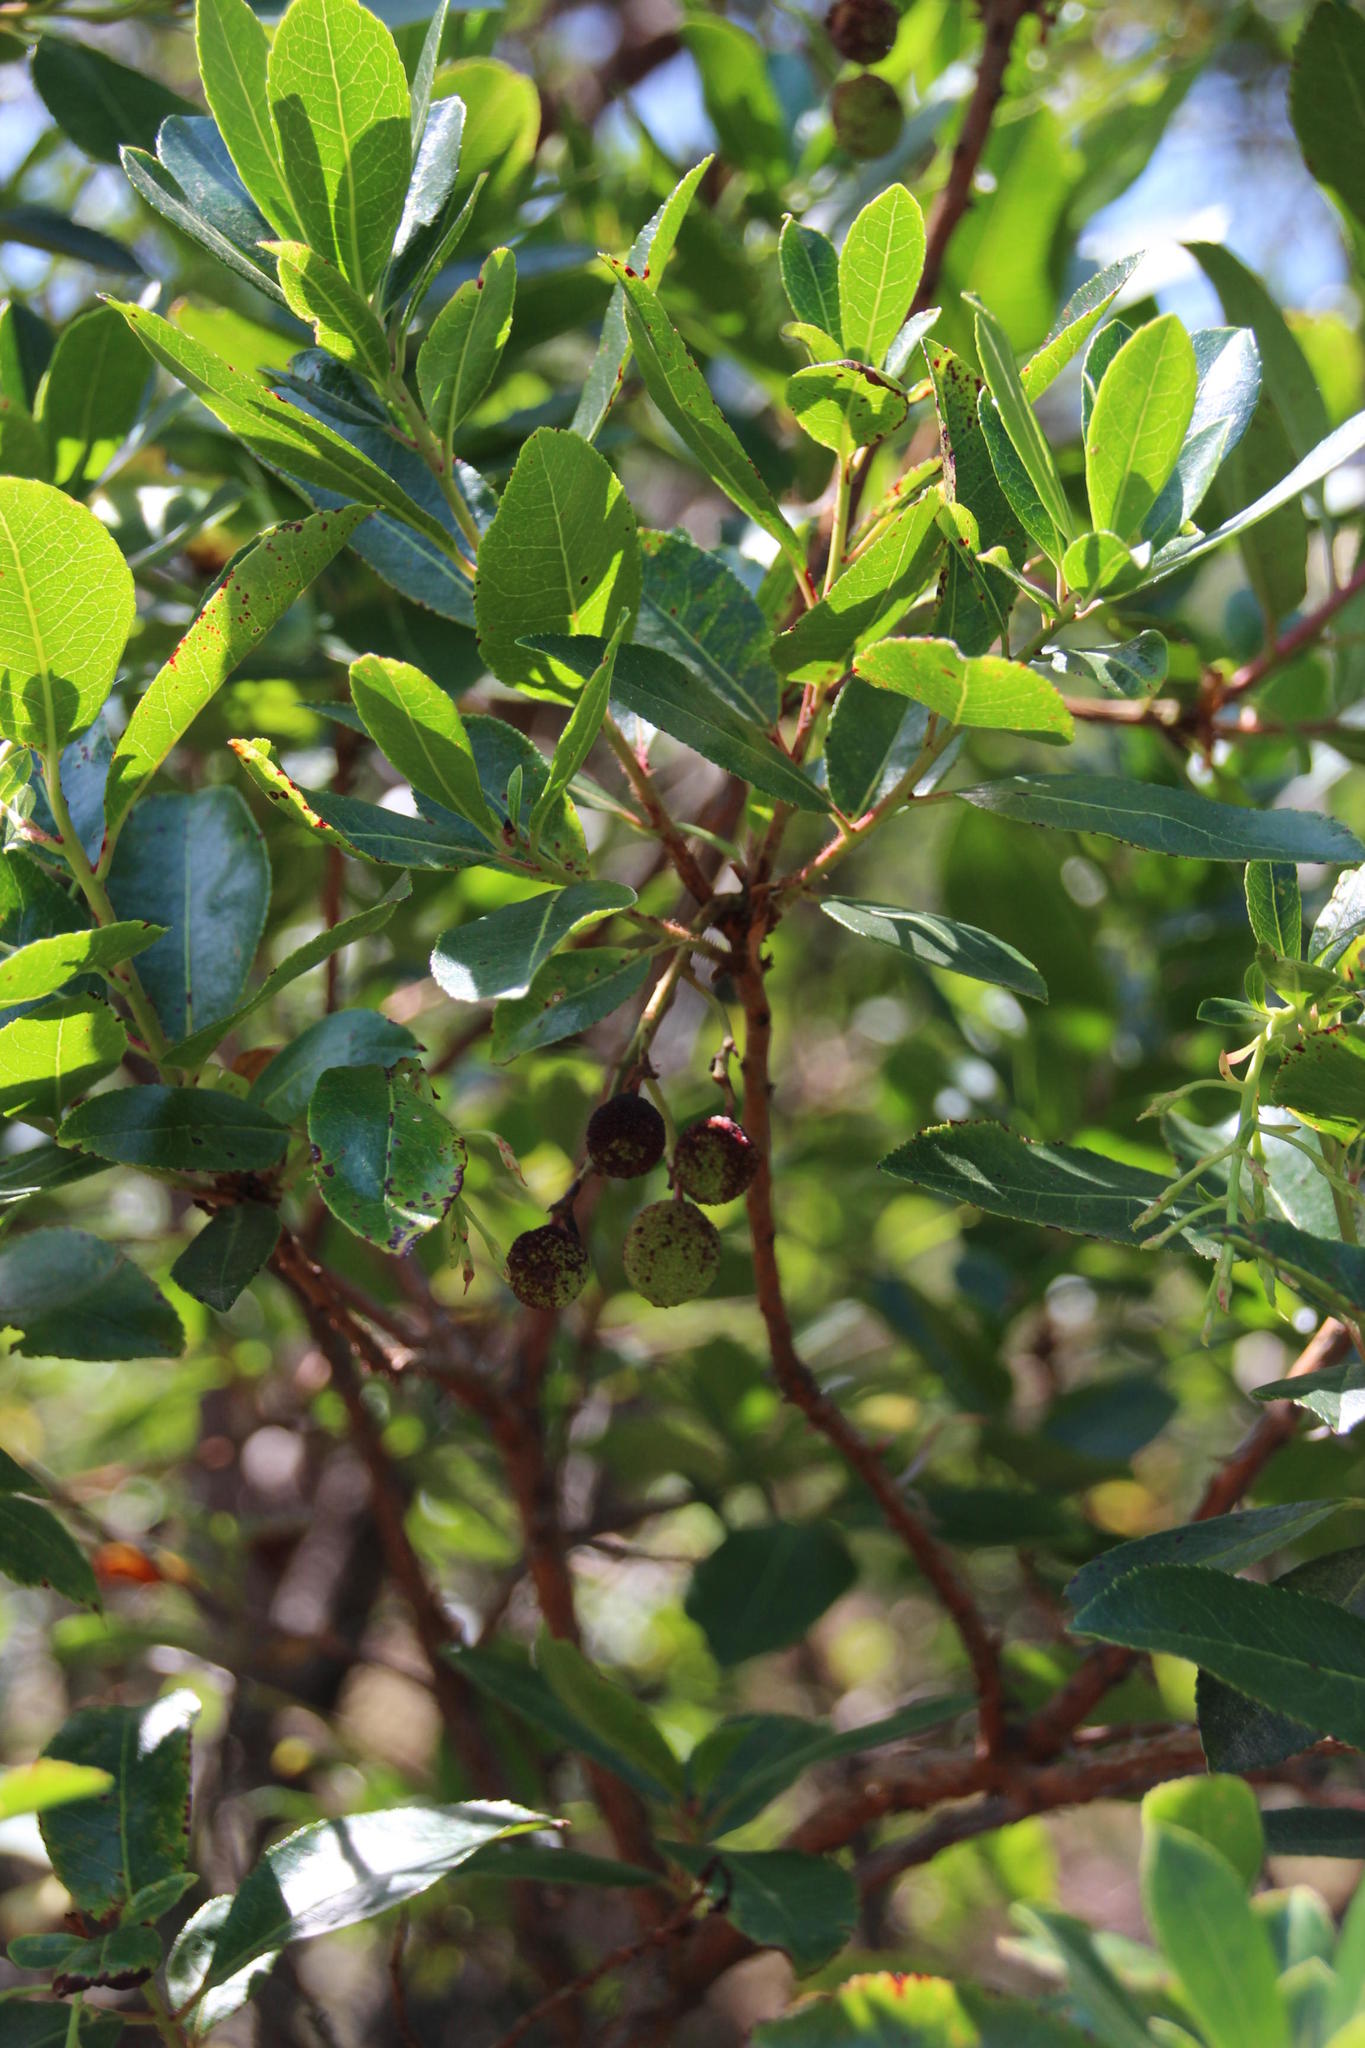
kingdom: Plantae
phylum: Tracheophyta
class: Magnoliopsida
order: Ericales
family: Ericaceae
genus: Arbutus
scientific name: Arbutus unedo
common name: Strawberry-tree
